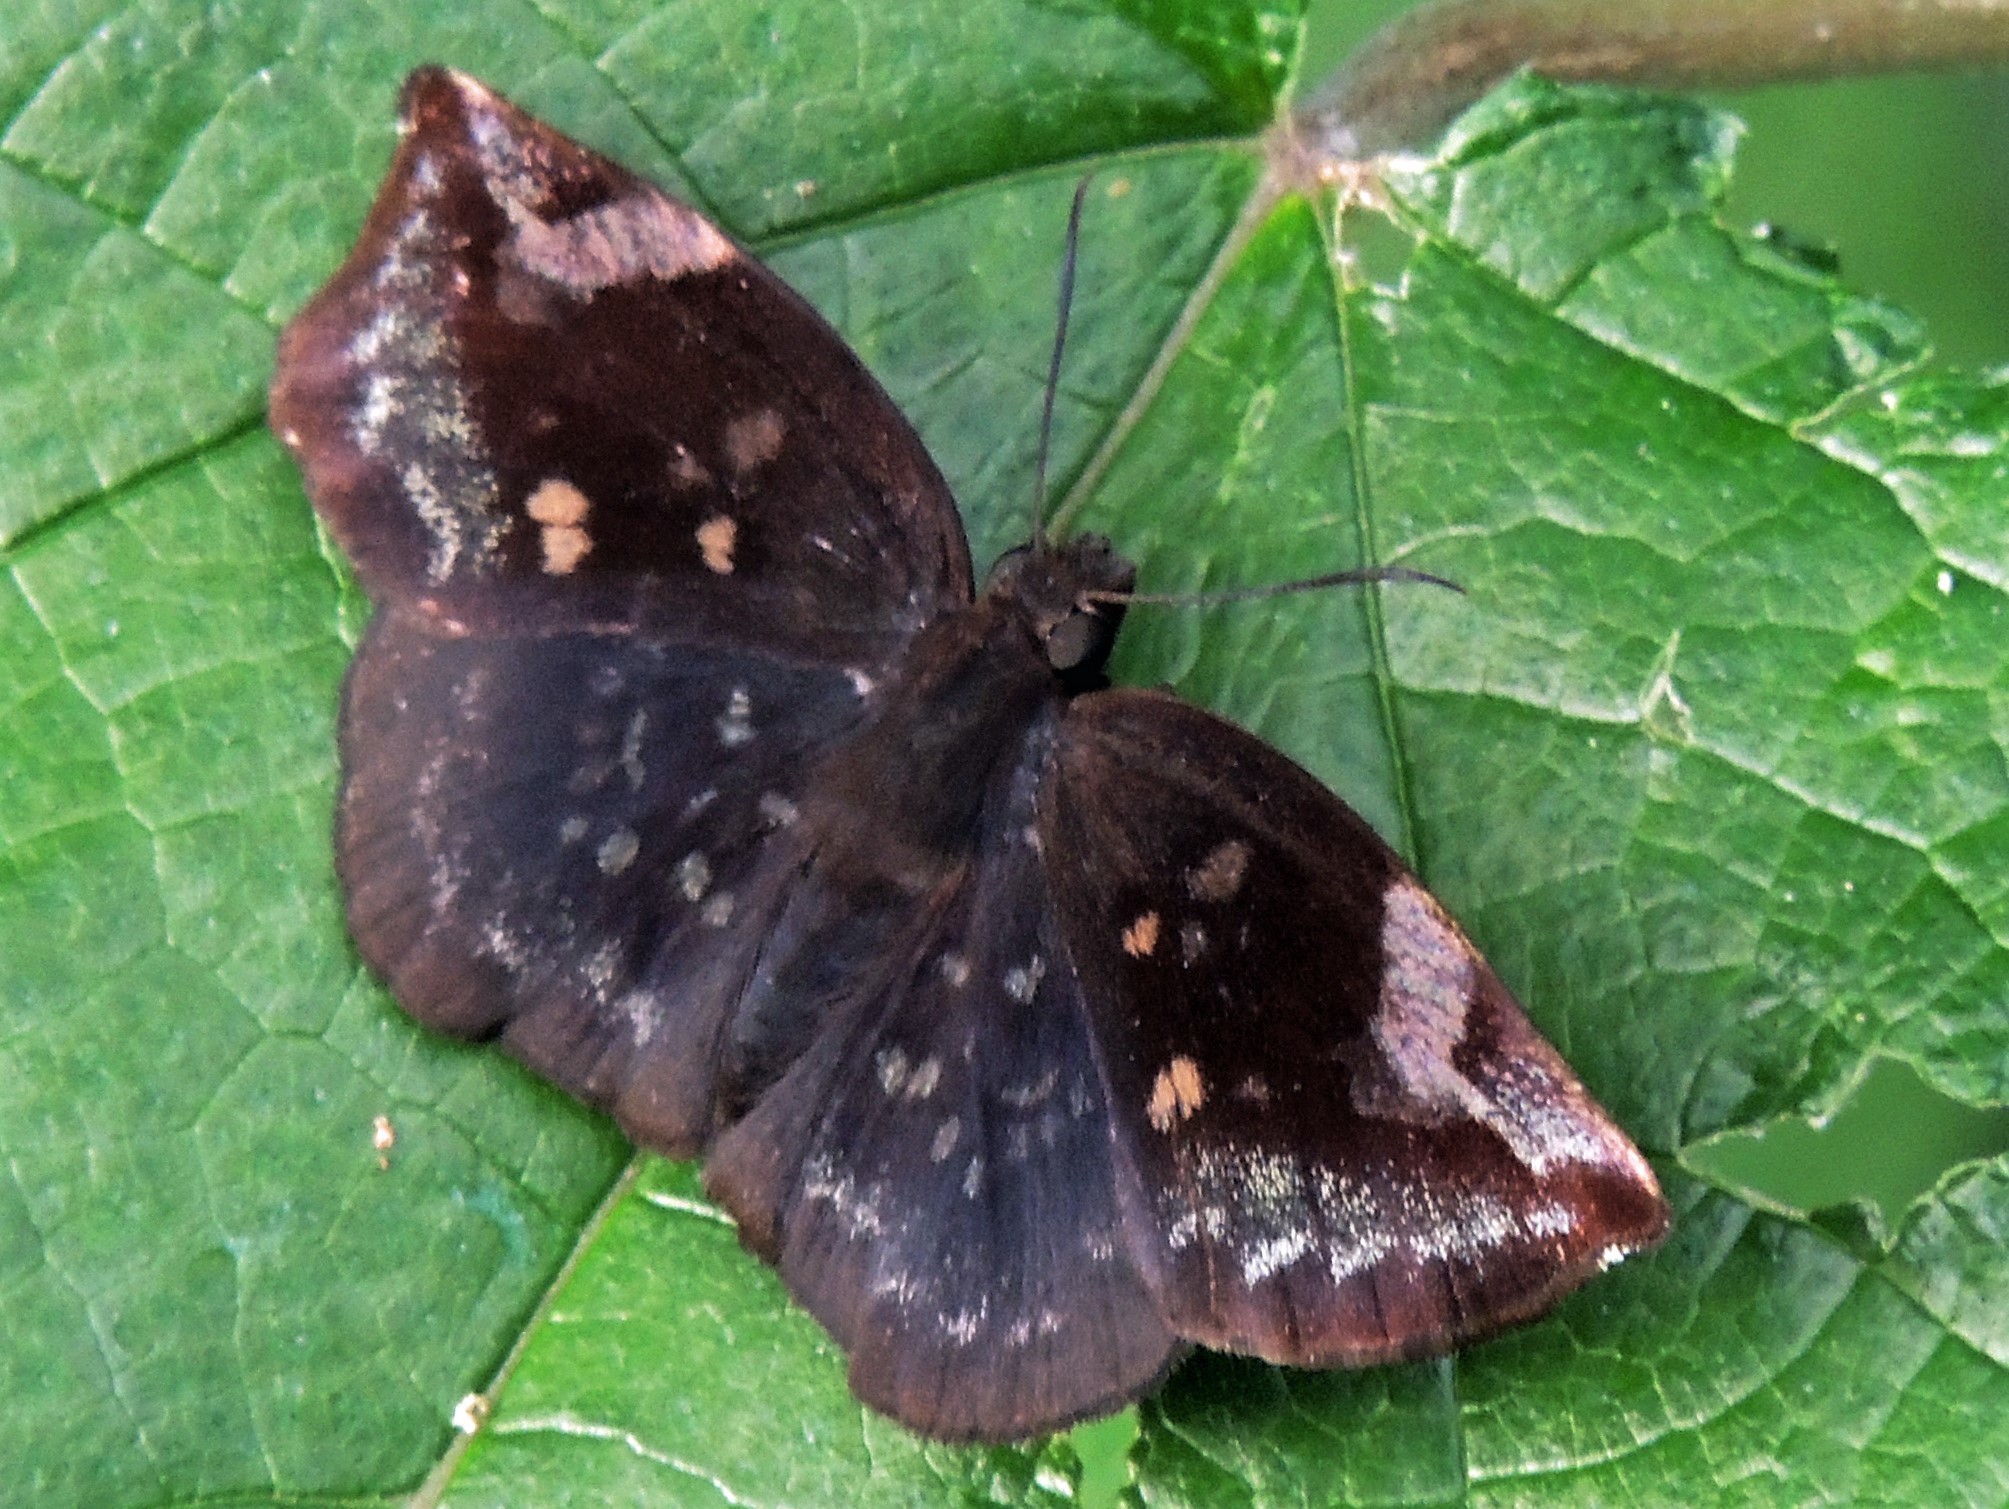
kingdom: Animalia
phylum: Arthropoda
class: Insecta
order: Lepidoptera
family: Hesperiidae
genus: Achlyodes
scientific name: Achlyodes thraso
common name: Sickle-winged skipper
